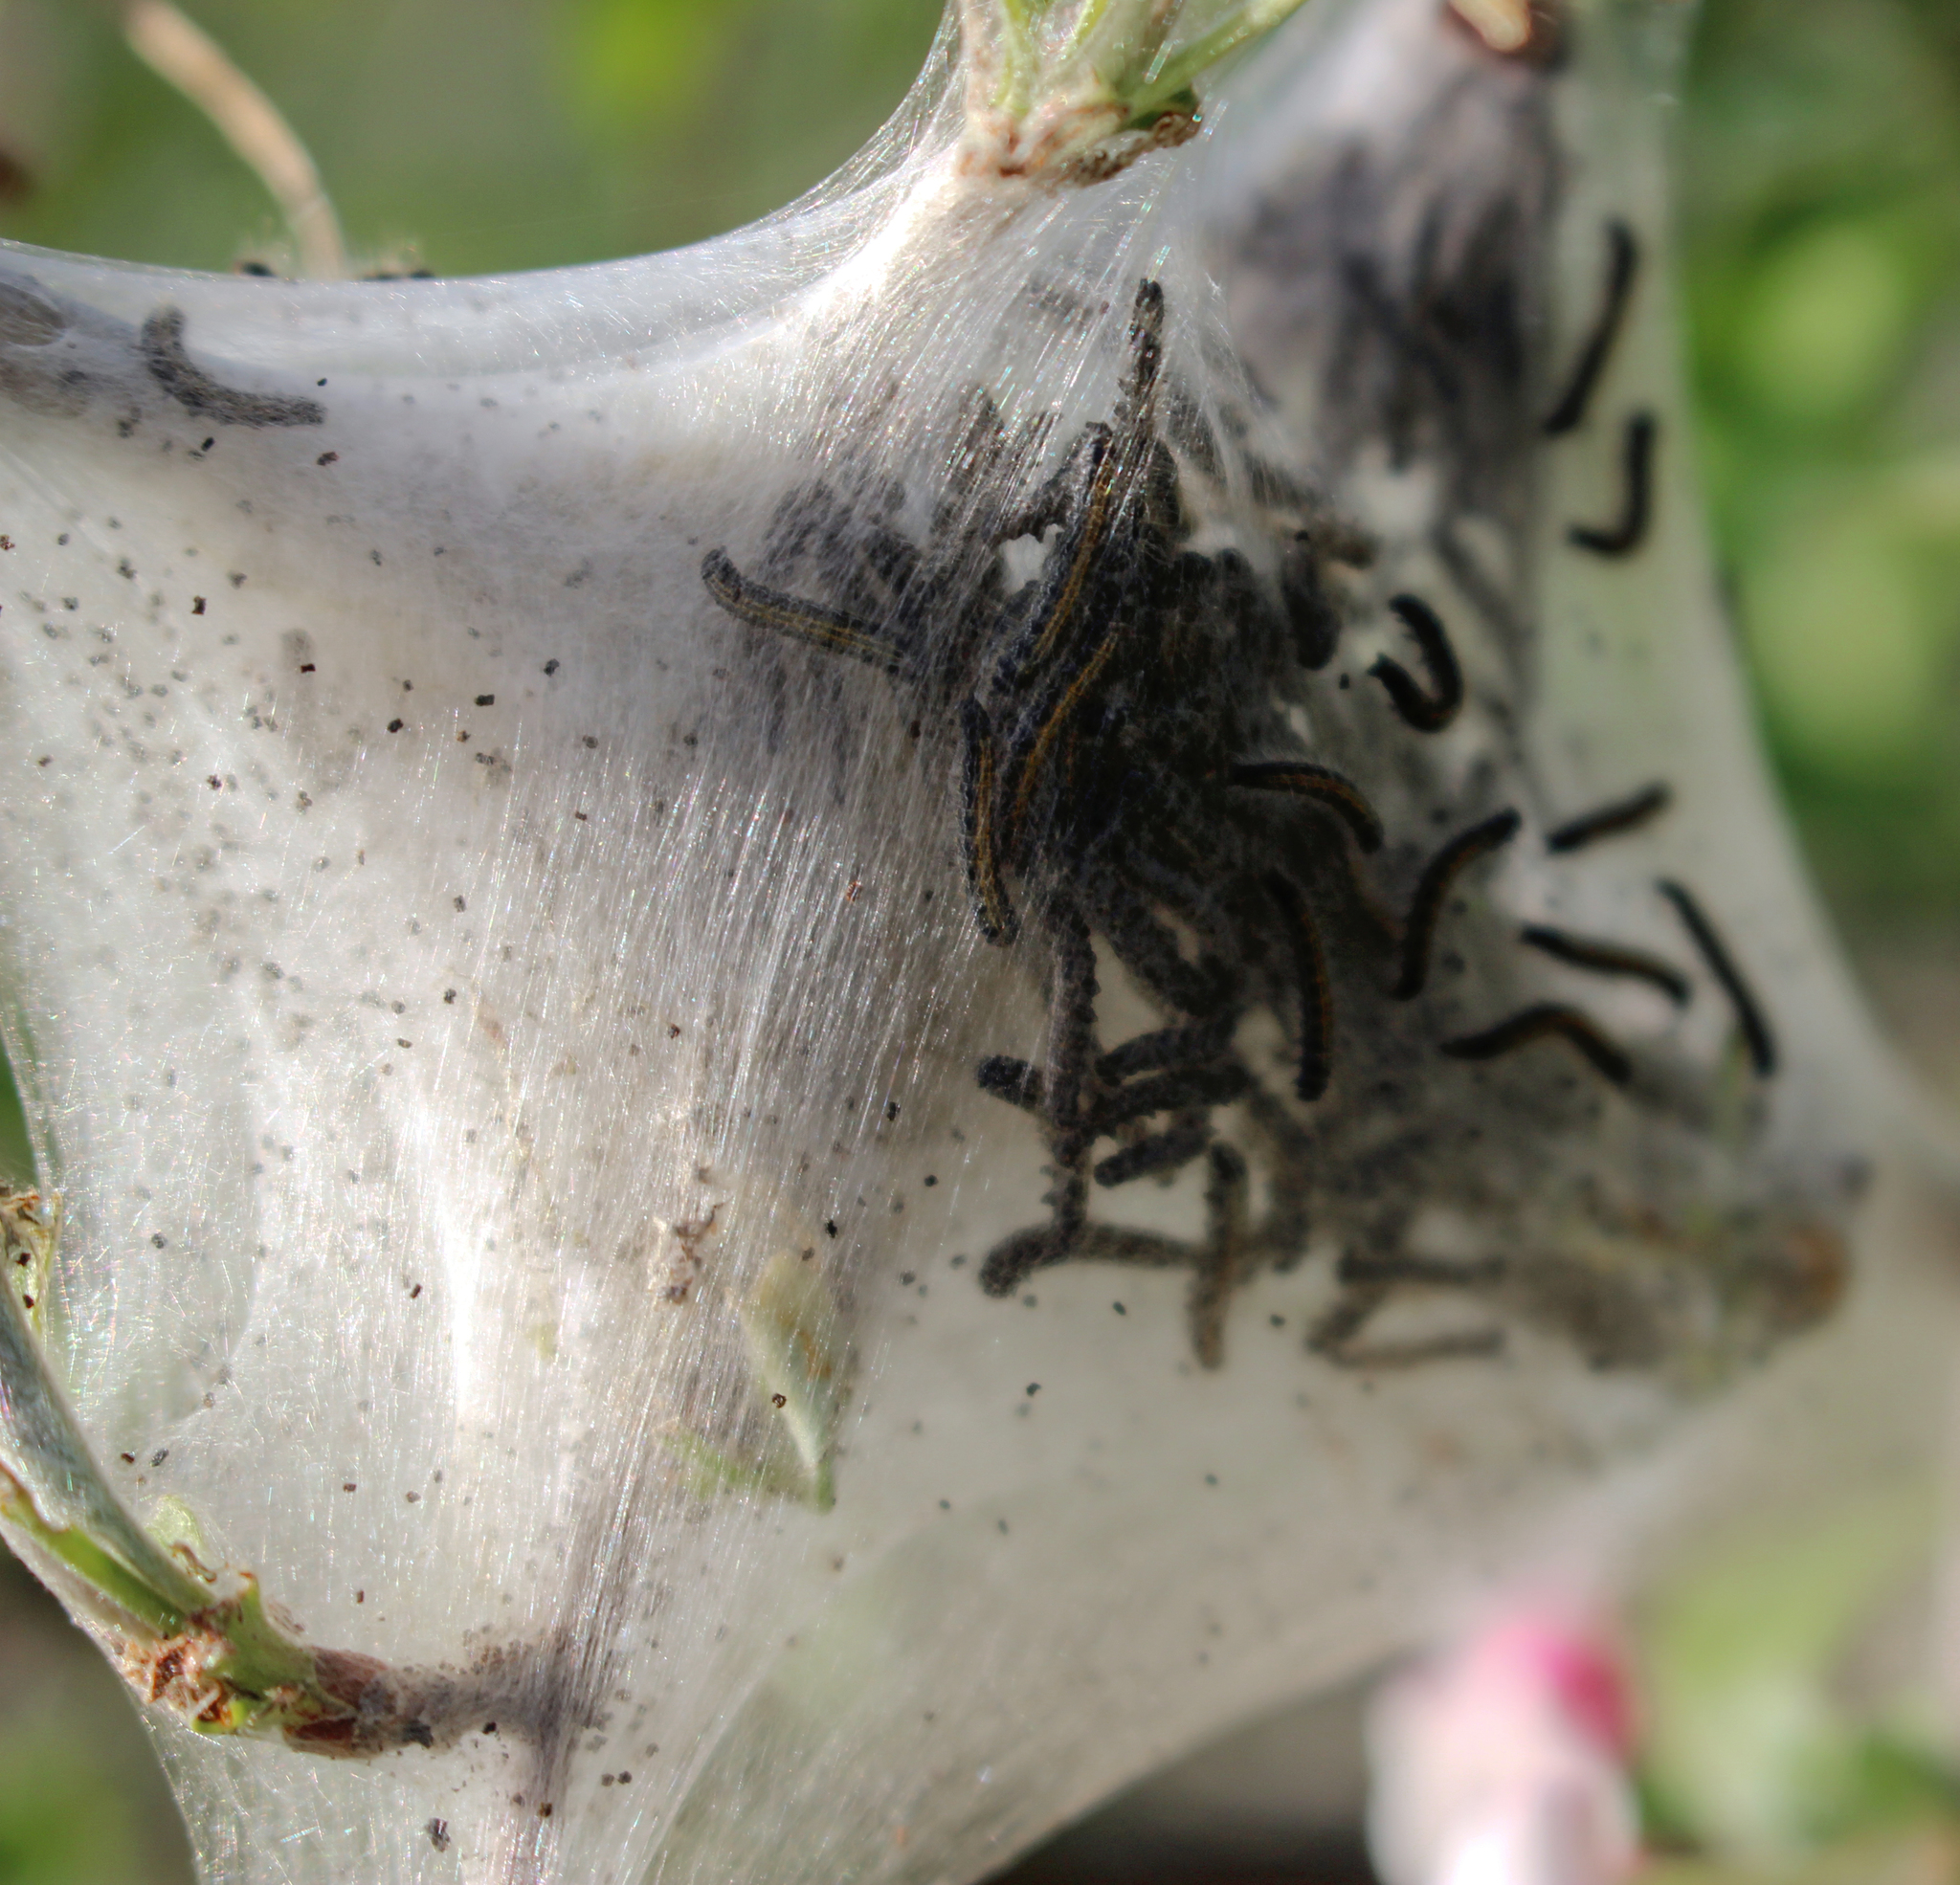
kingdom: Animalia
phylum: Arthropoda
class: Insecta
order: Lepidoptera
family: Lasiocampidae
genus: Malacosoma
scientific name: Malacosoma americana
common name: Eastern tent caterpillar moth
